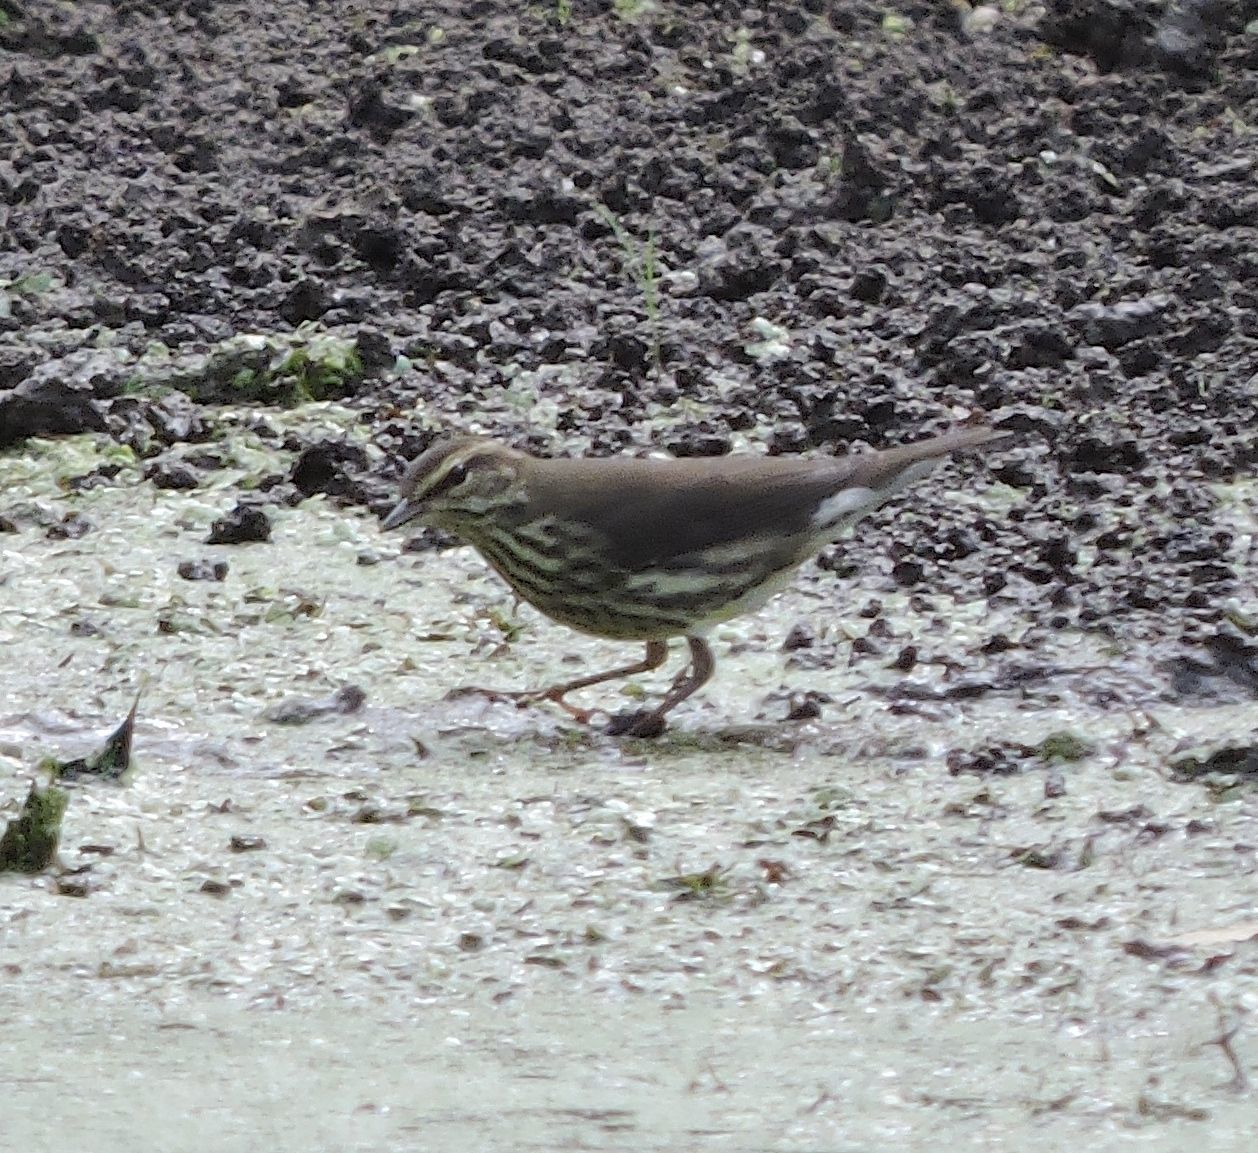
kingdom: Animalia
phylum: Chordata
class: Aves
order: Passeriformes
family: Parulidae
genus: Parkesia
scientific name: Parkesia noveboracensis
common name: Northern waterthrush
